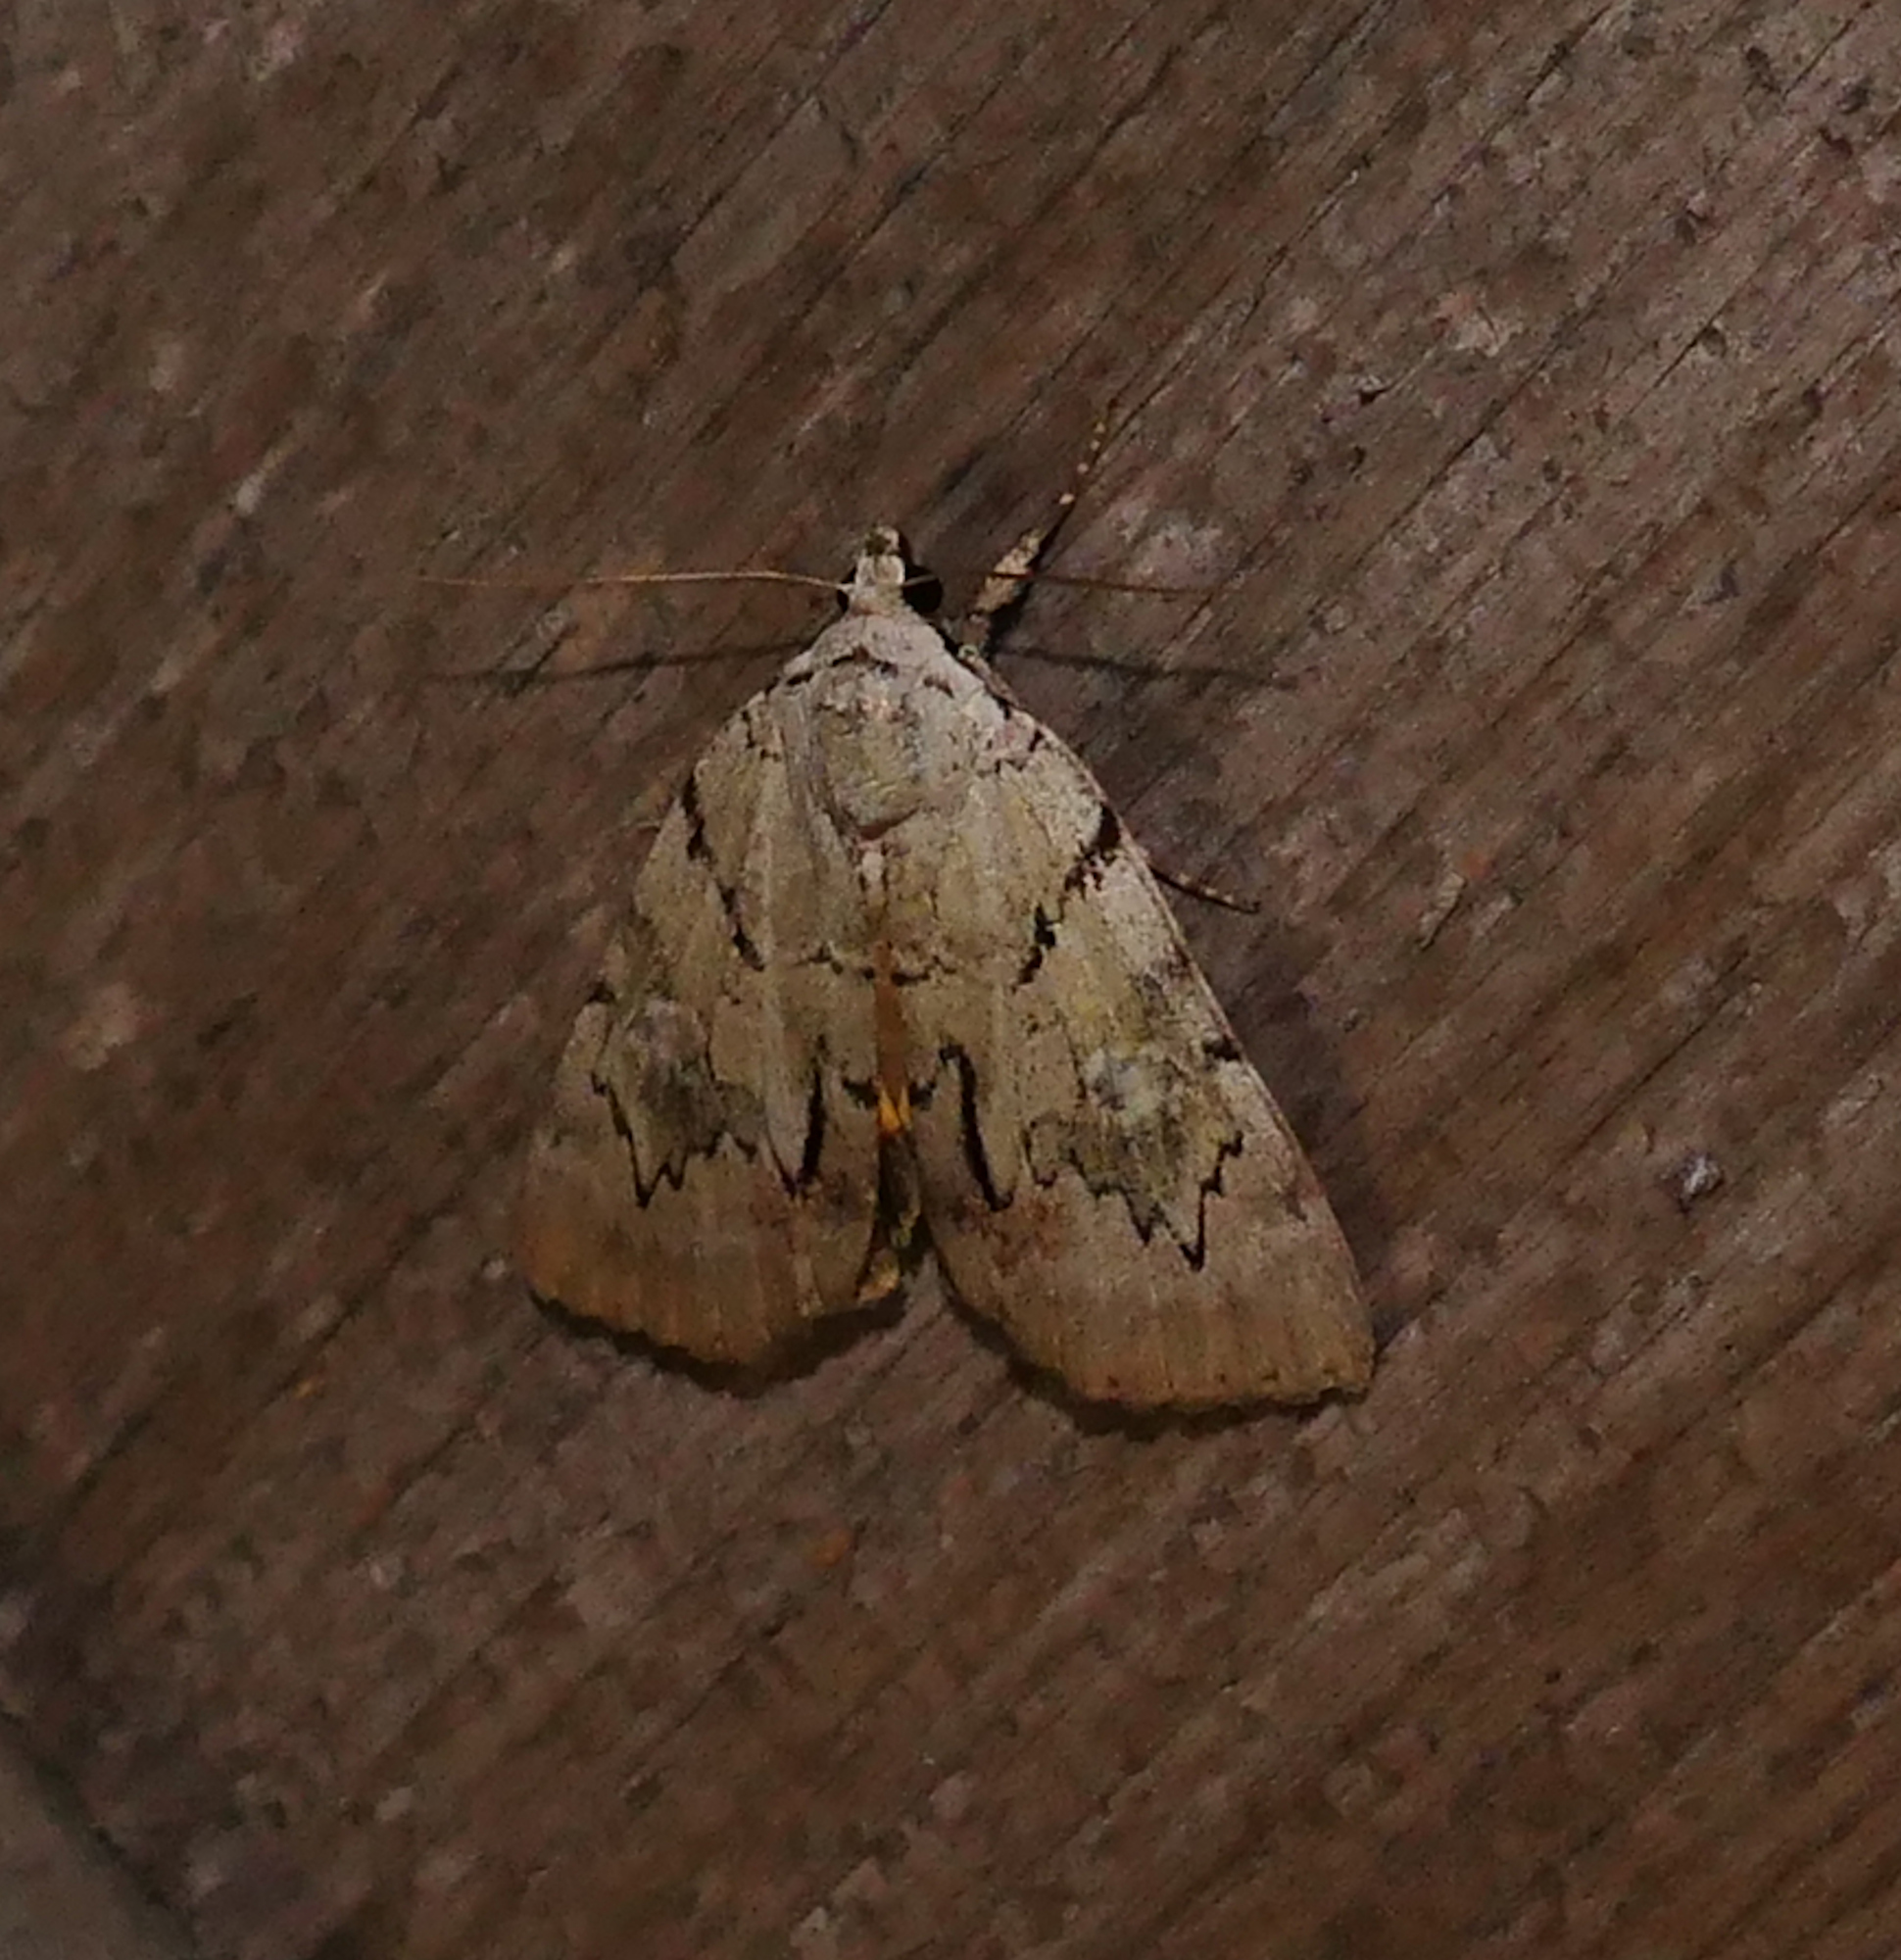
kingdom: Animalia
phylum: Arthropoda
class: Insecta
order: Lepidoptera
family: Erebidae
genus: Catocala
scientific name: Catocala alabamae
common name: Alabama underwing
